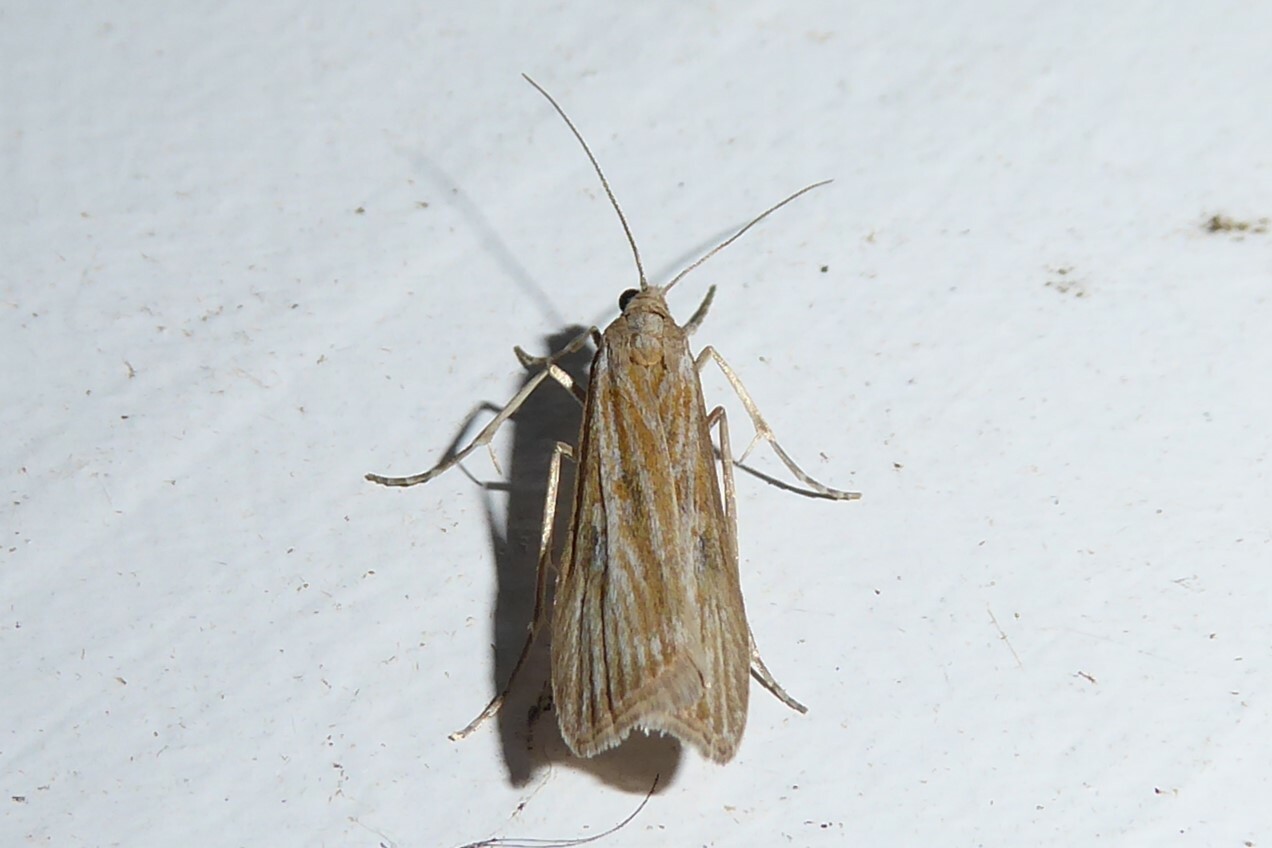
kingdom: Animalia
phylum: Arthropoda
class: Insecta
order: Lepidoptera
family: Crambidae
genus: Eudonia
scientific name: Eudonia leptalea
